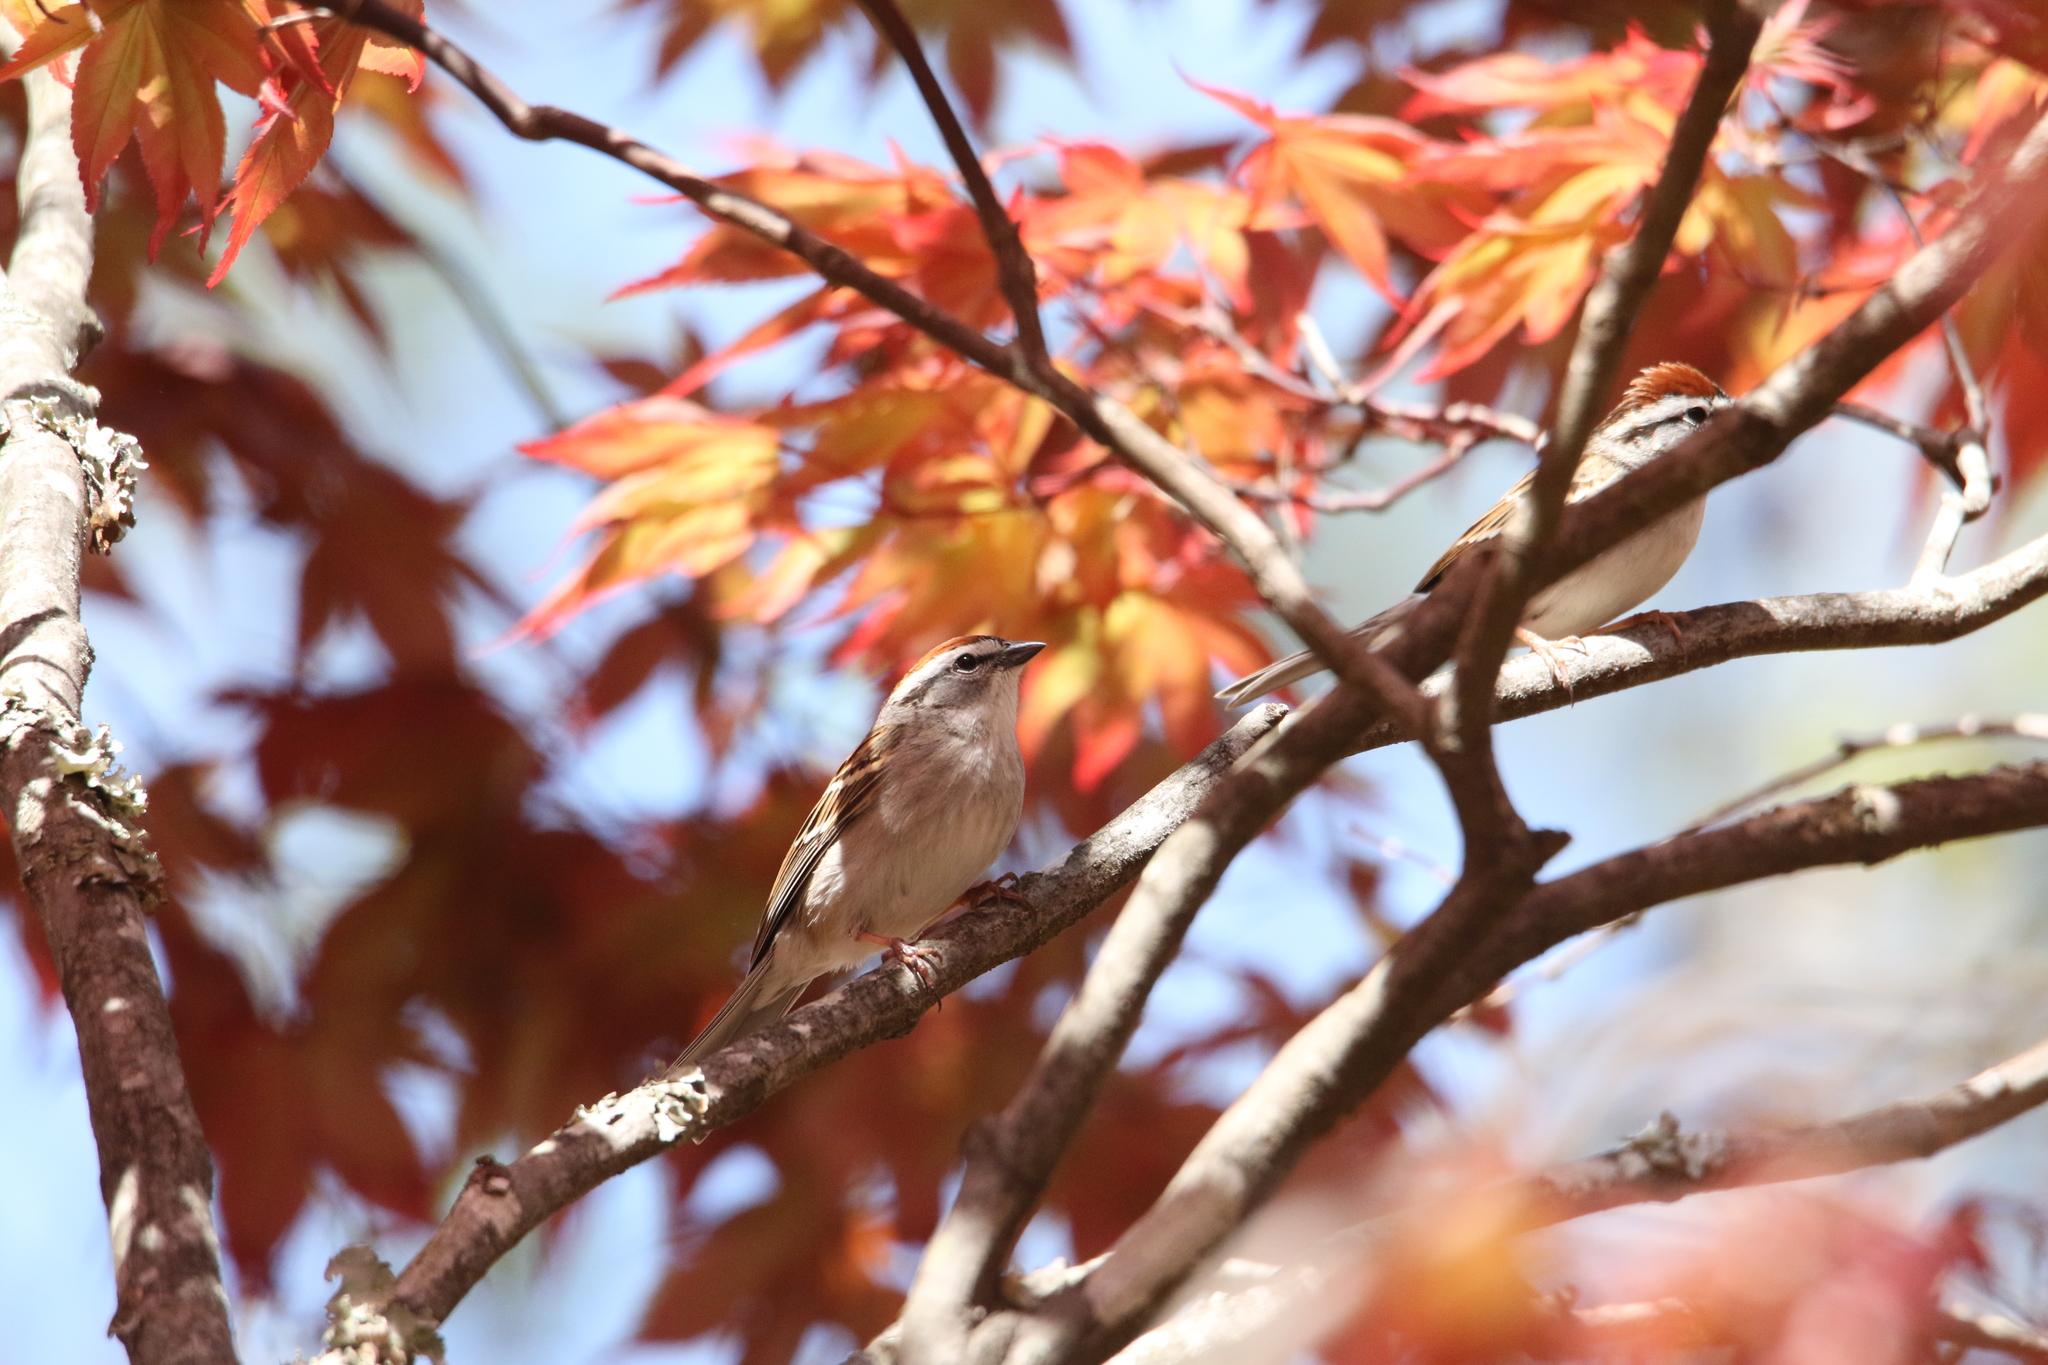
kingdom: Animalia
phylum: Chordata
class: Aves
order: Passeriformes
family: Passerellidae
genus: Spizella
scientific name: Spizella passerina
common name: Chipping sparrow
